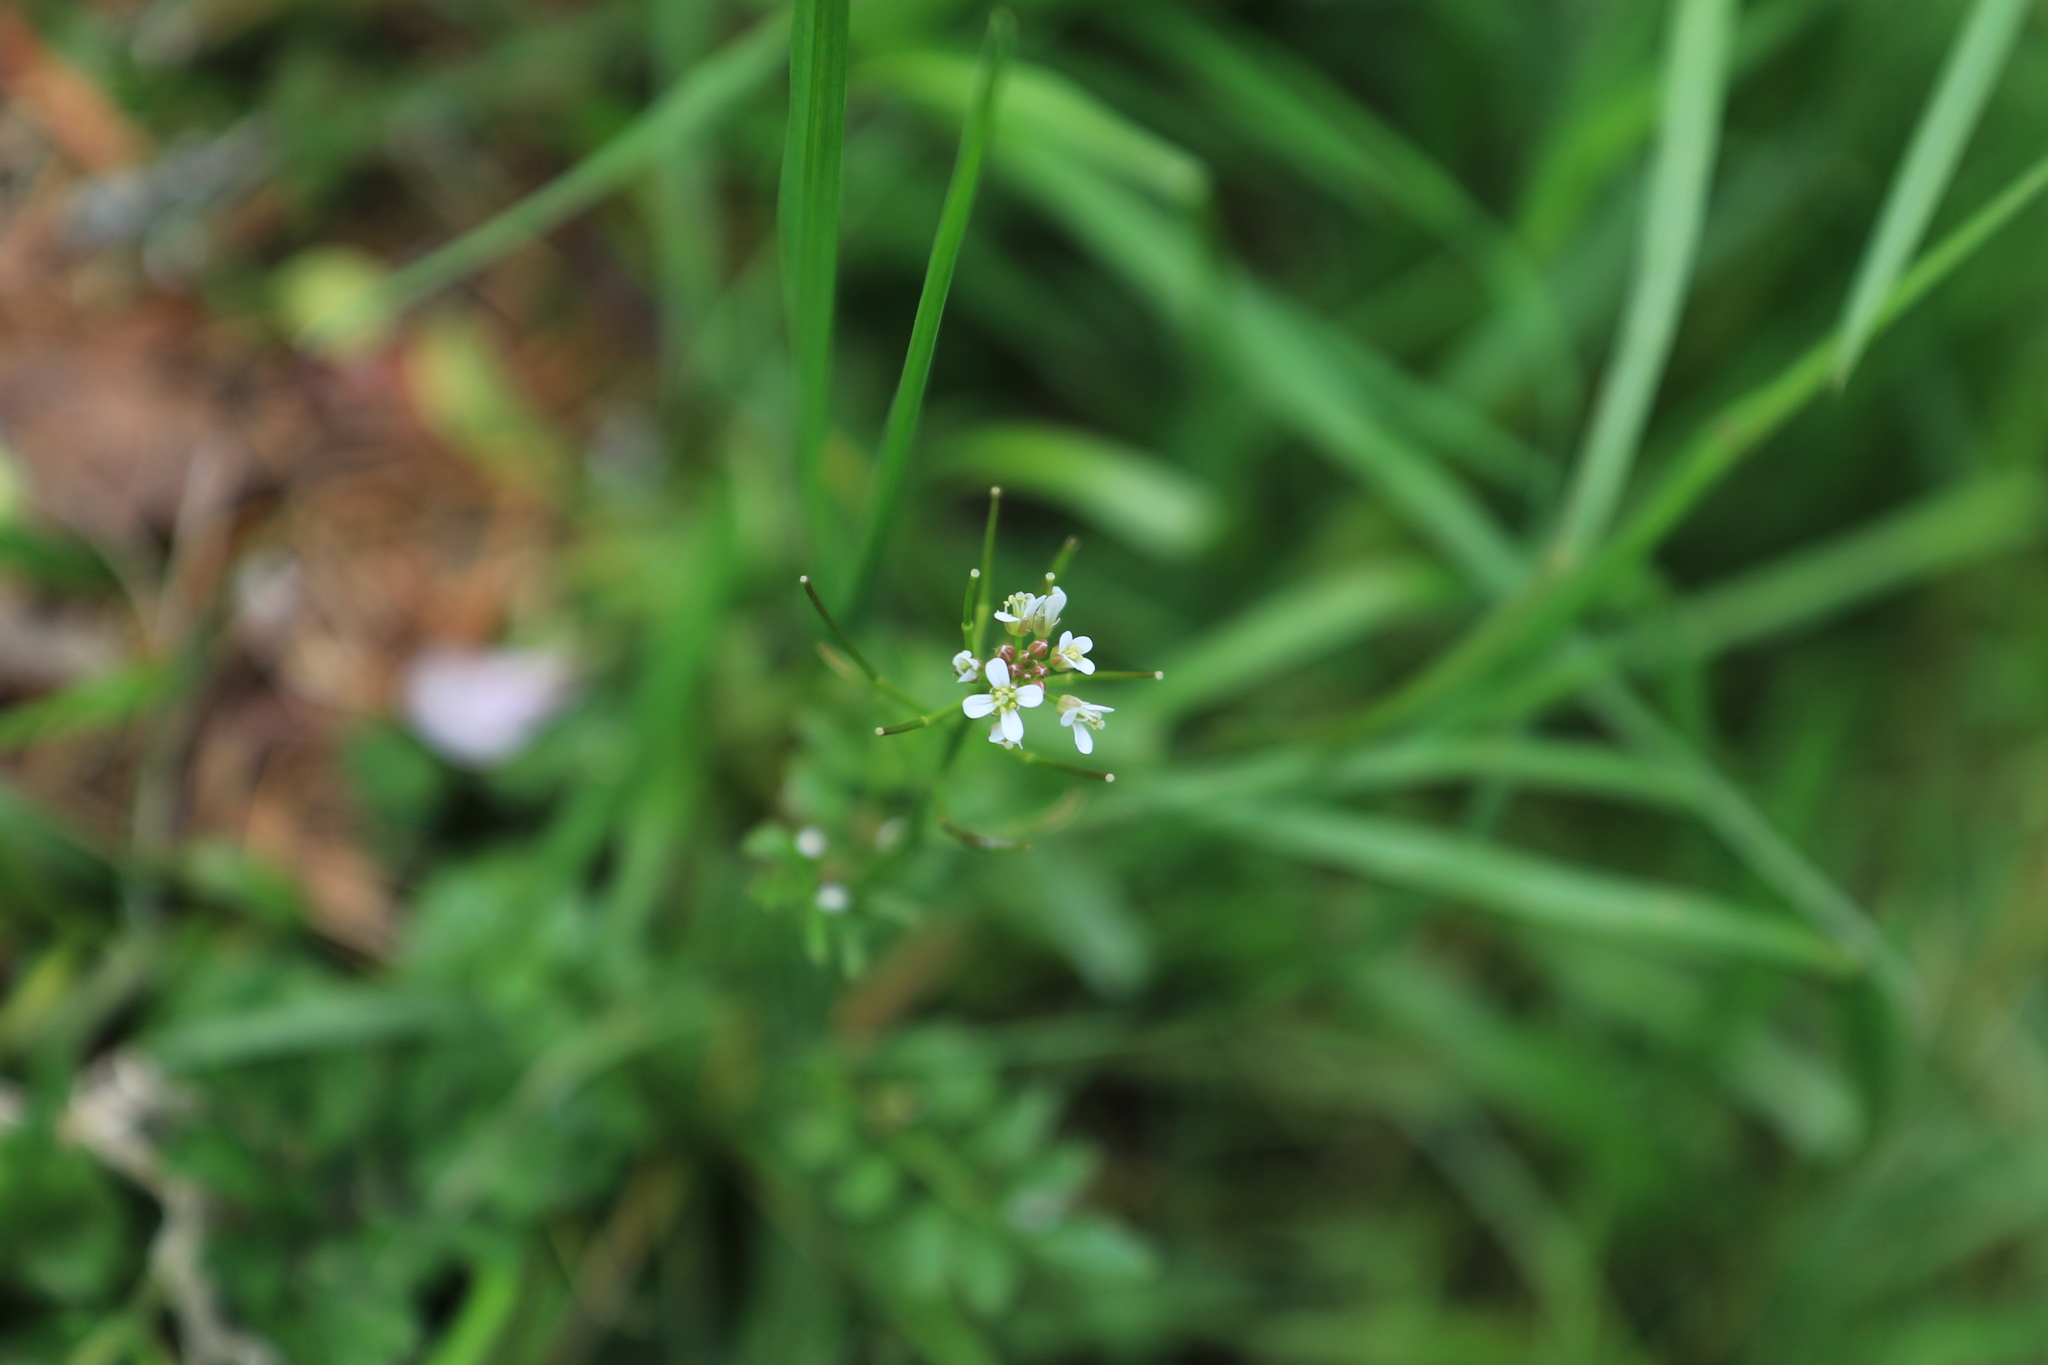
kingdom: Plantae
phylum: Tracheophyta
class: Magnoliopsida
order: Brassicales
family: Brassicaceae
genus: Cardamine
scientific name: Cardamine flexuosa
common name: Woodland bittercress
